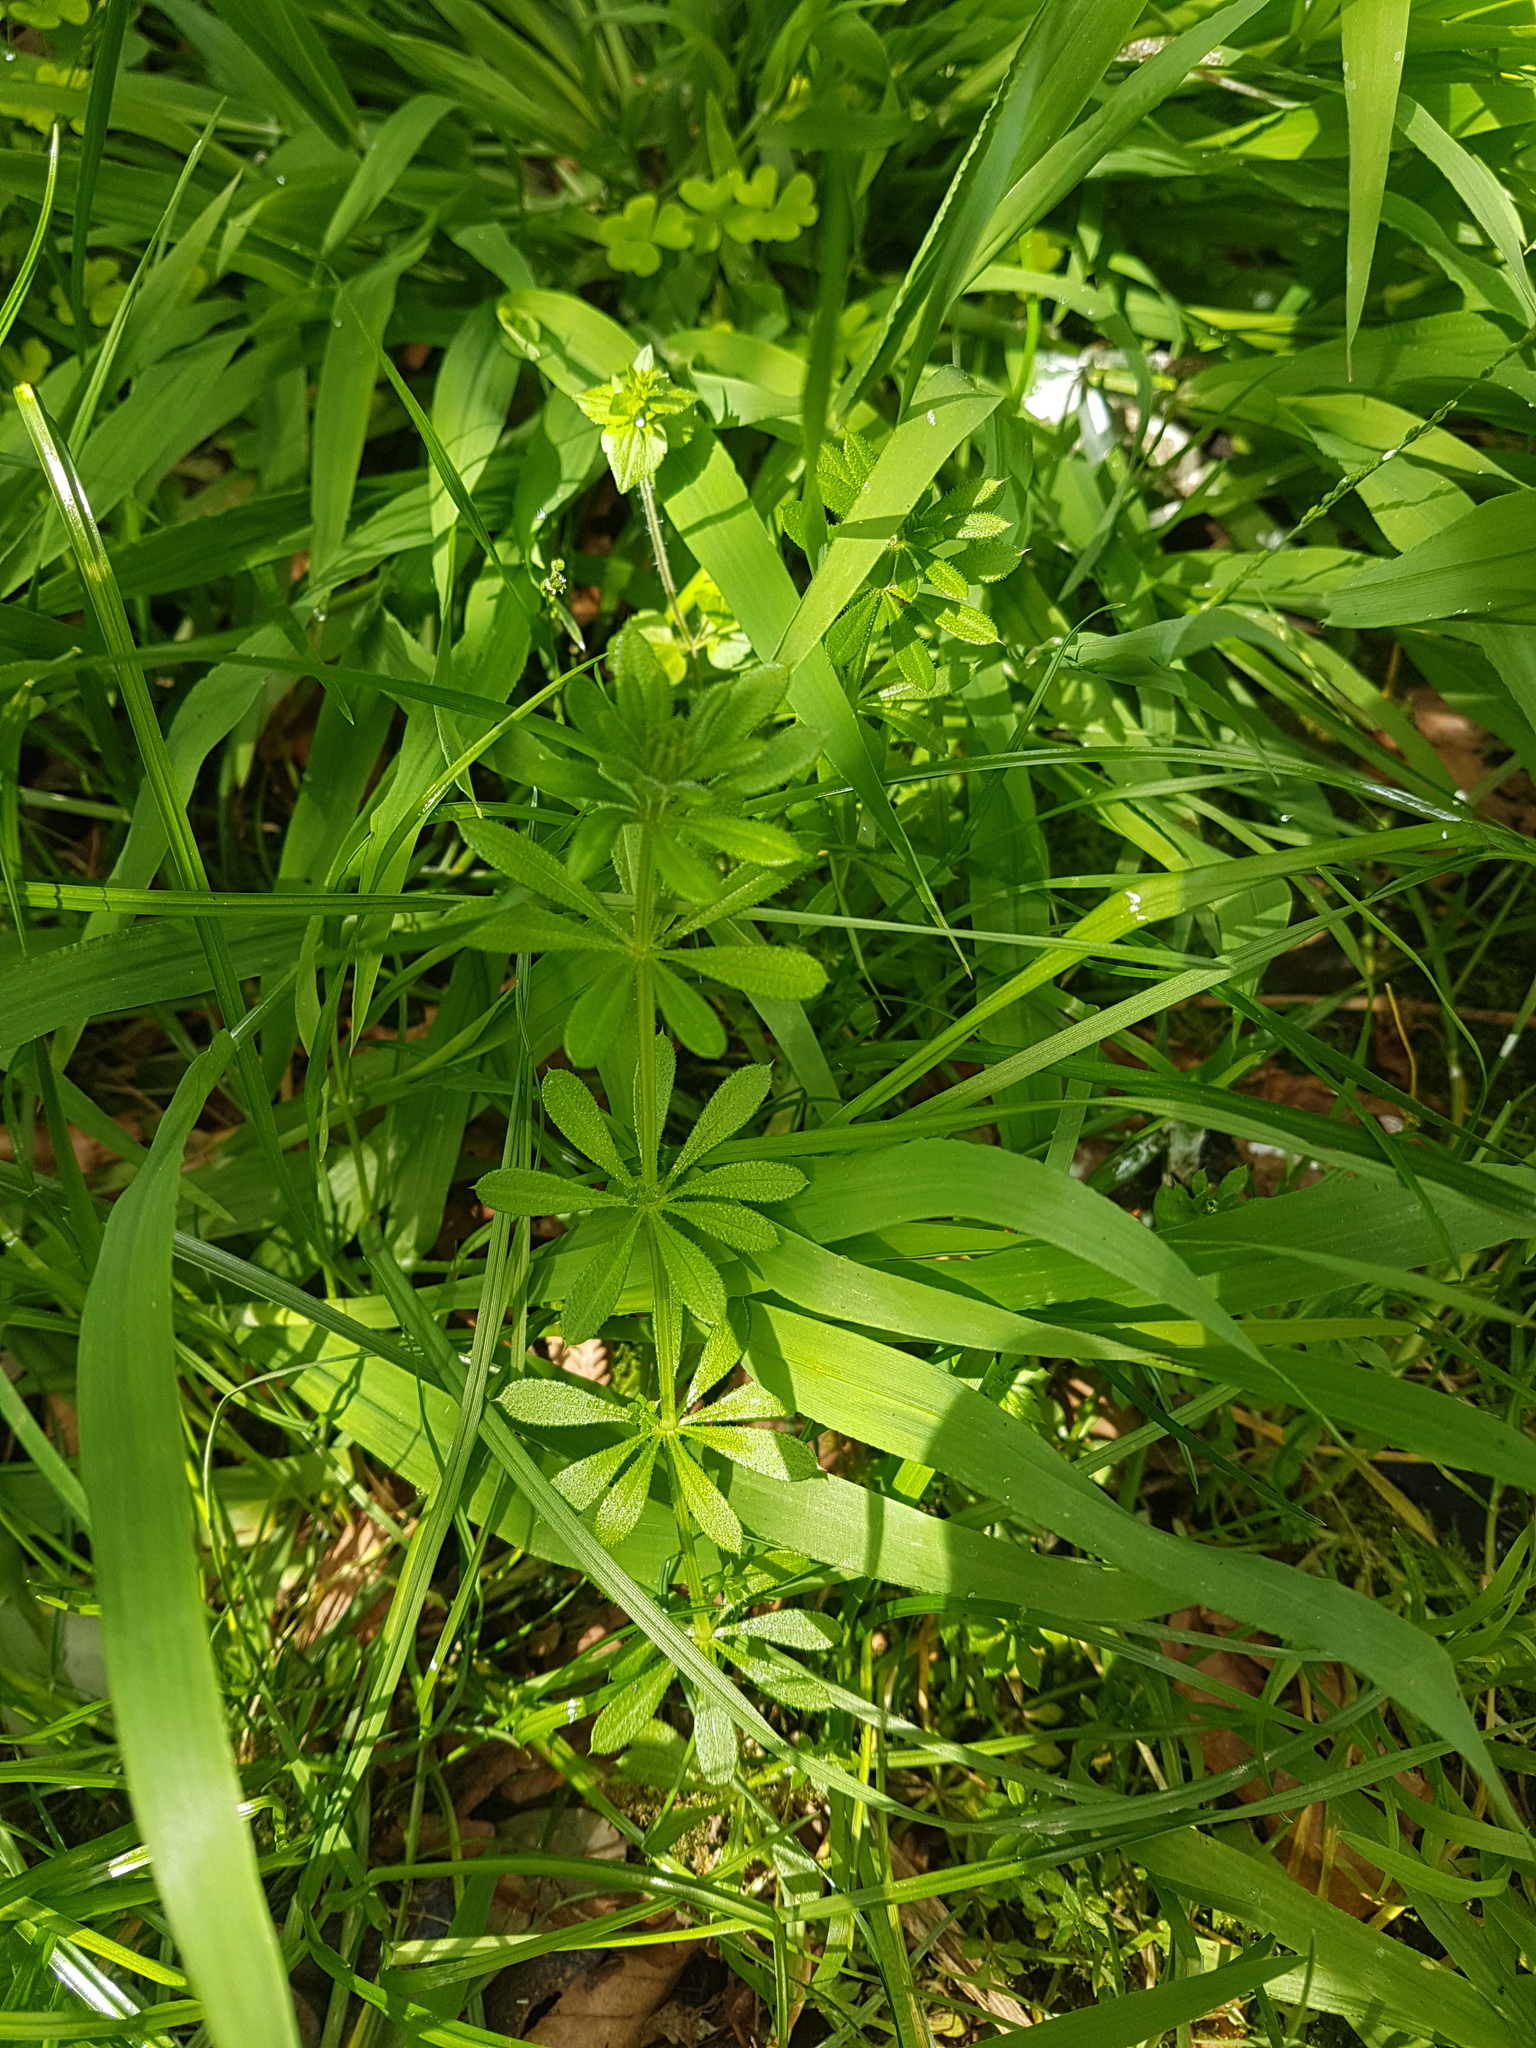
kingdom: Plantae
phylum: Tracheophyta
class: Magnoliopsida
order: Gentianales
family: Rubiaceae
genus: Galium
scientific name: Galium aparine
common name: Cleavers
